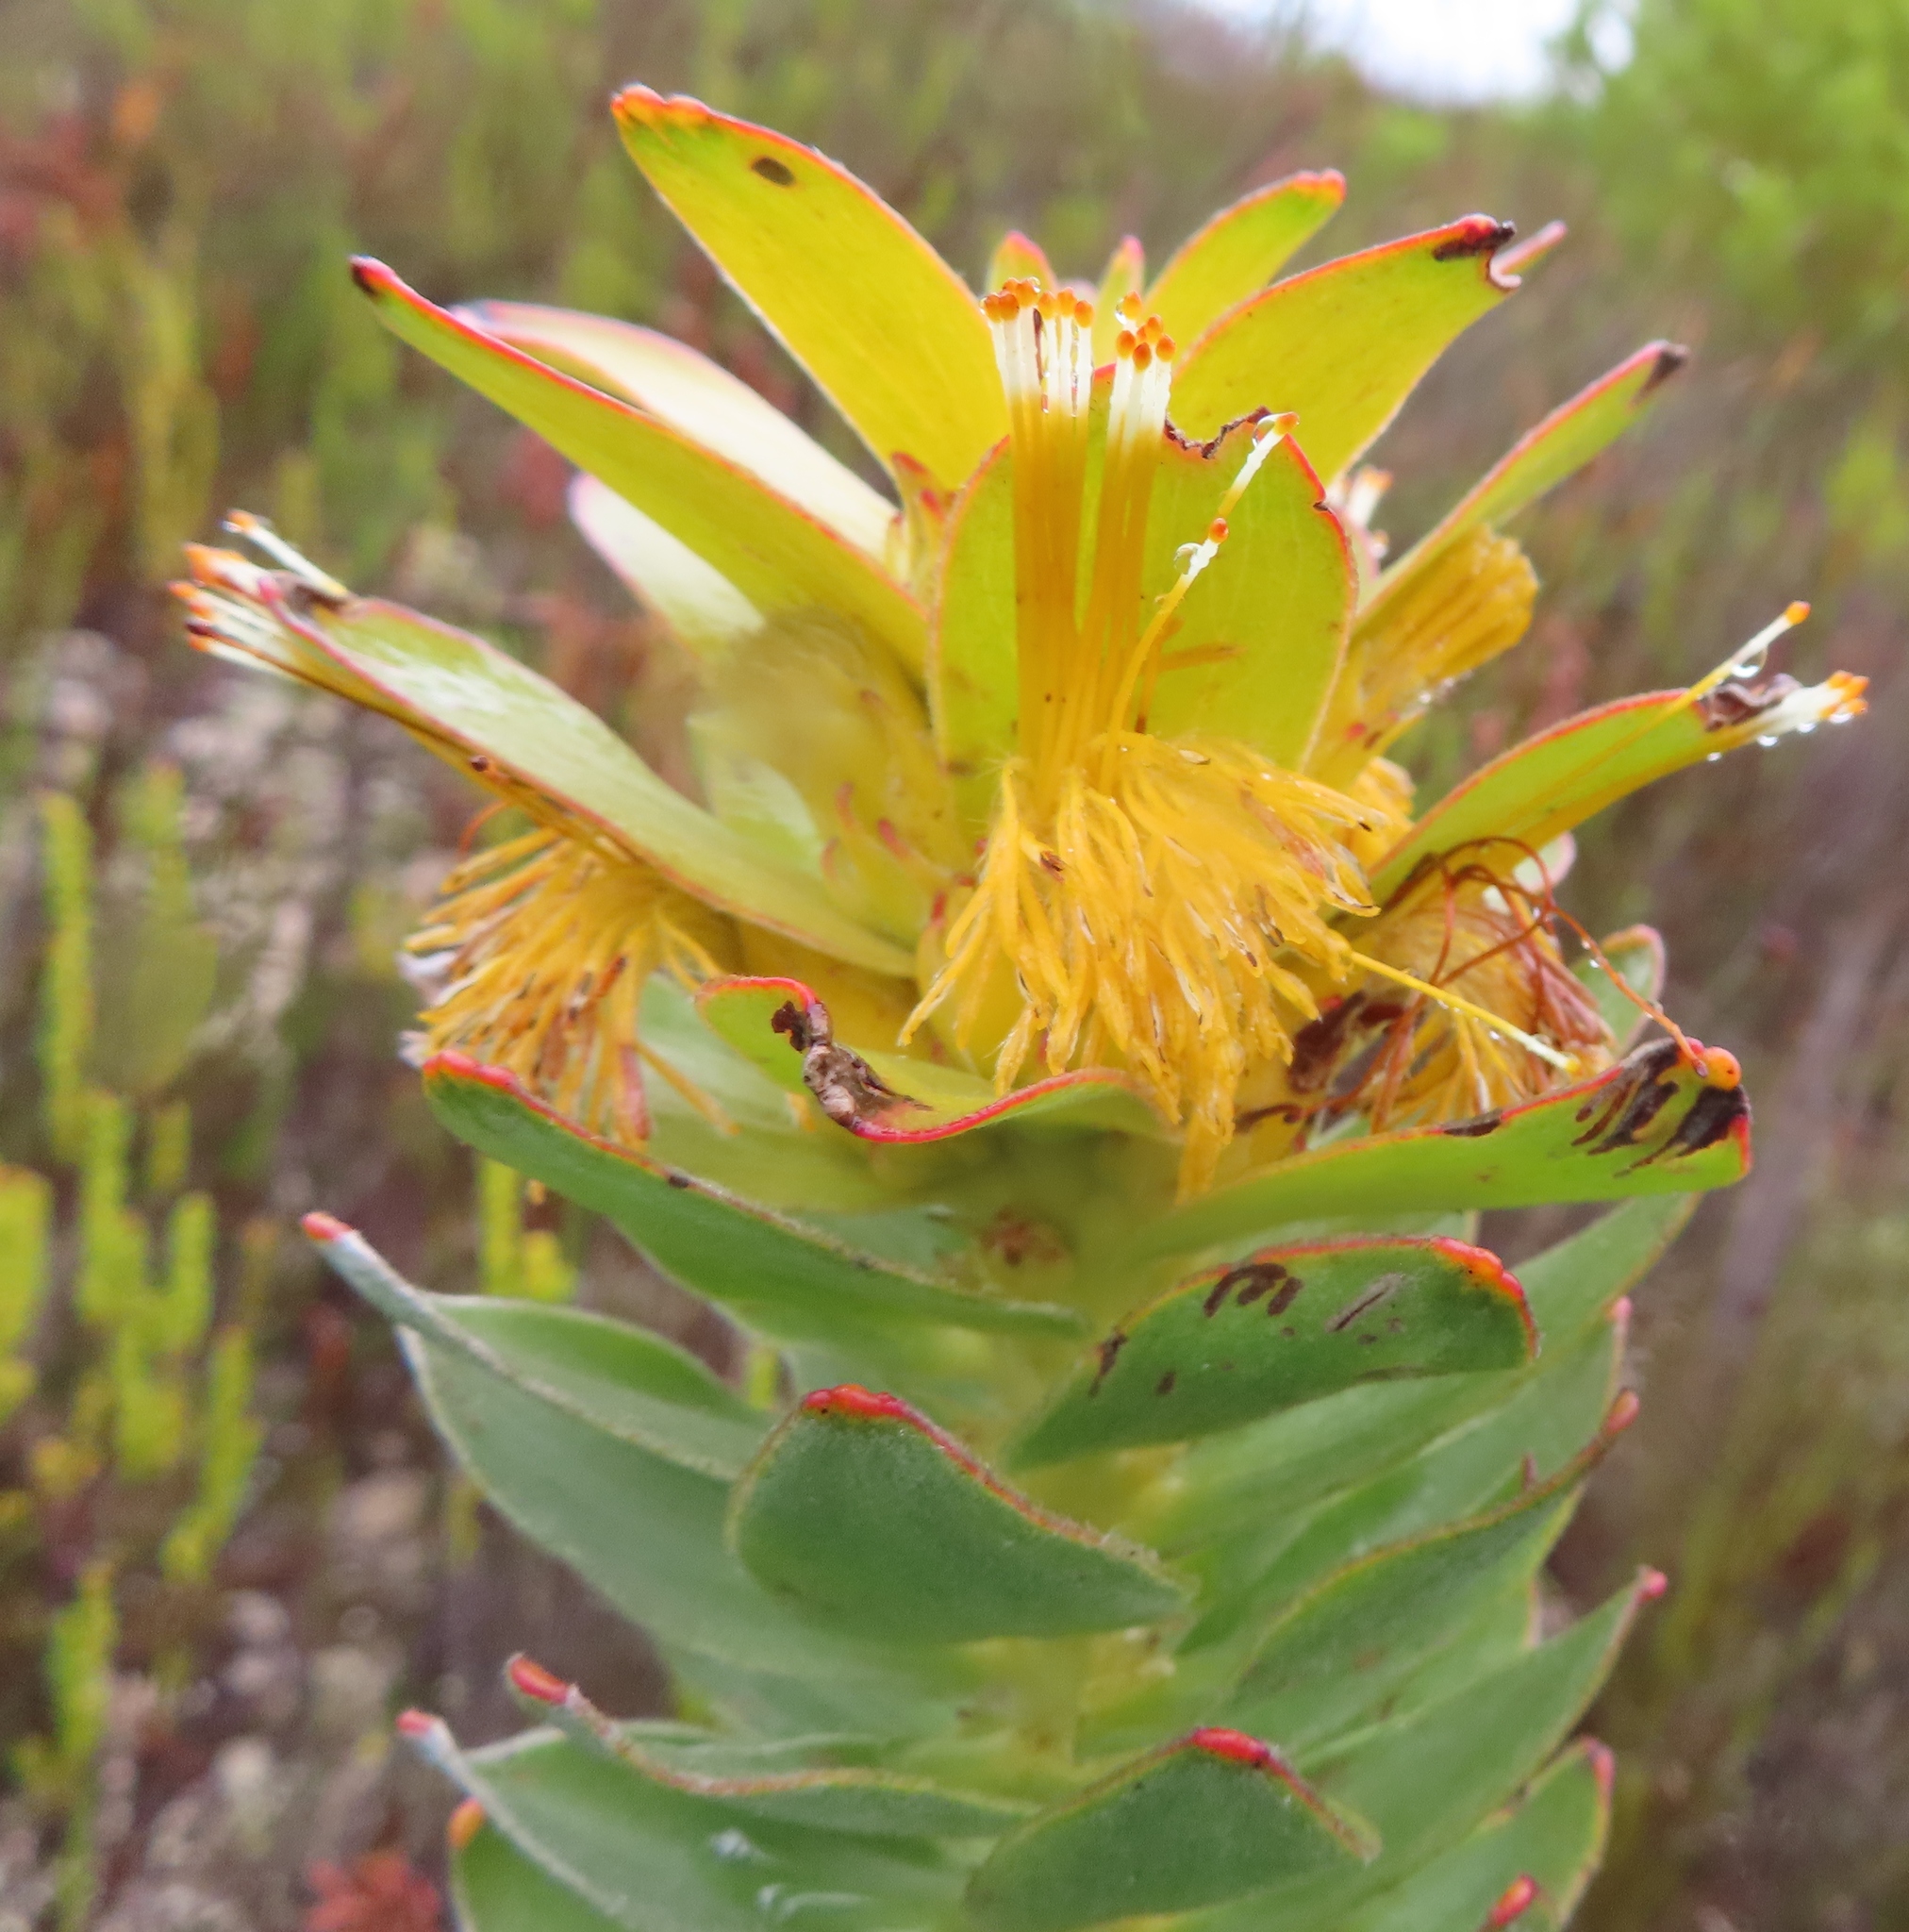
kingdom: Plantae
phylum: Tracheophyta
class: Magnoliopsida
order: Proteales
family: Proteaceae
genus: Mimetes
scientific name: Mimetes saxatilis
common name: Limestone pagoda
